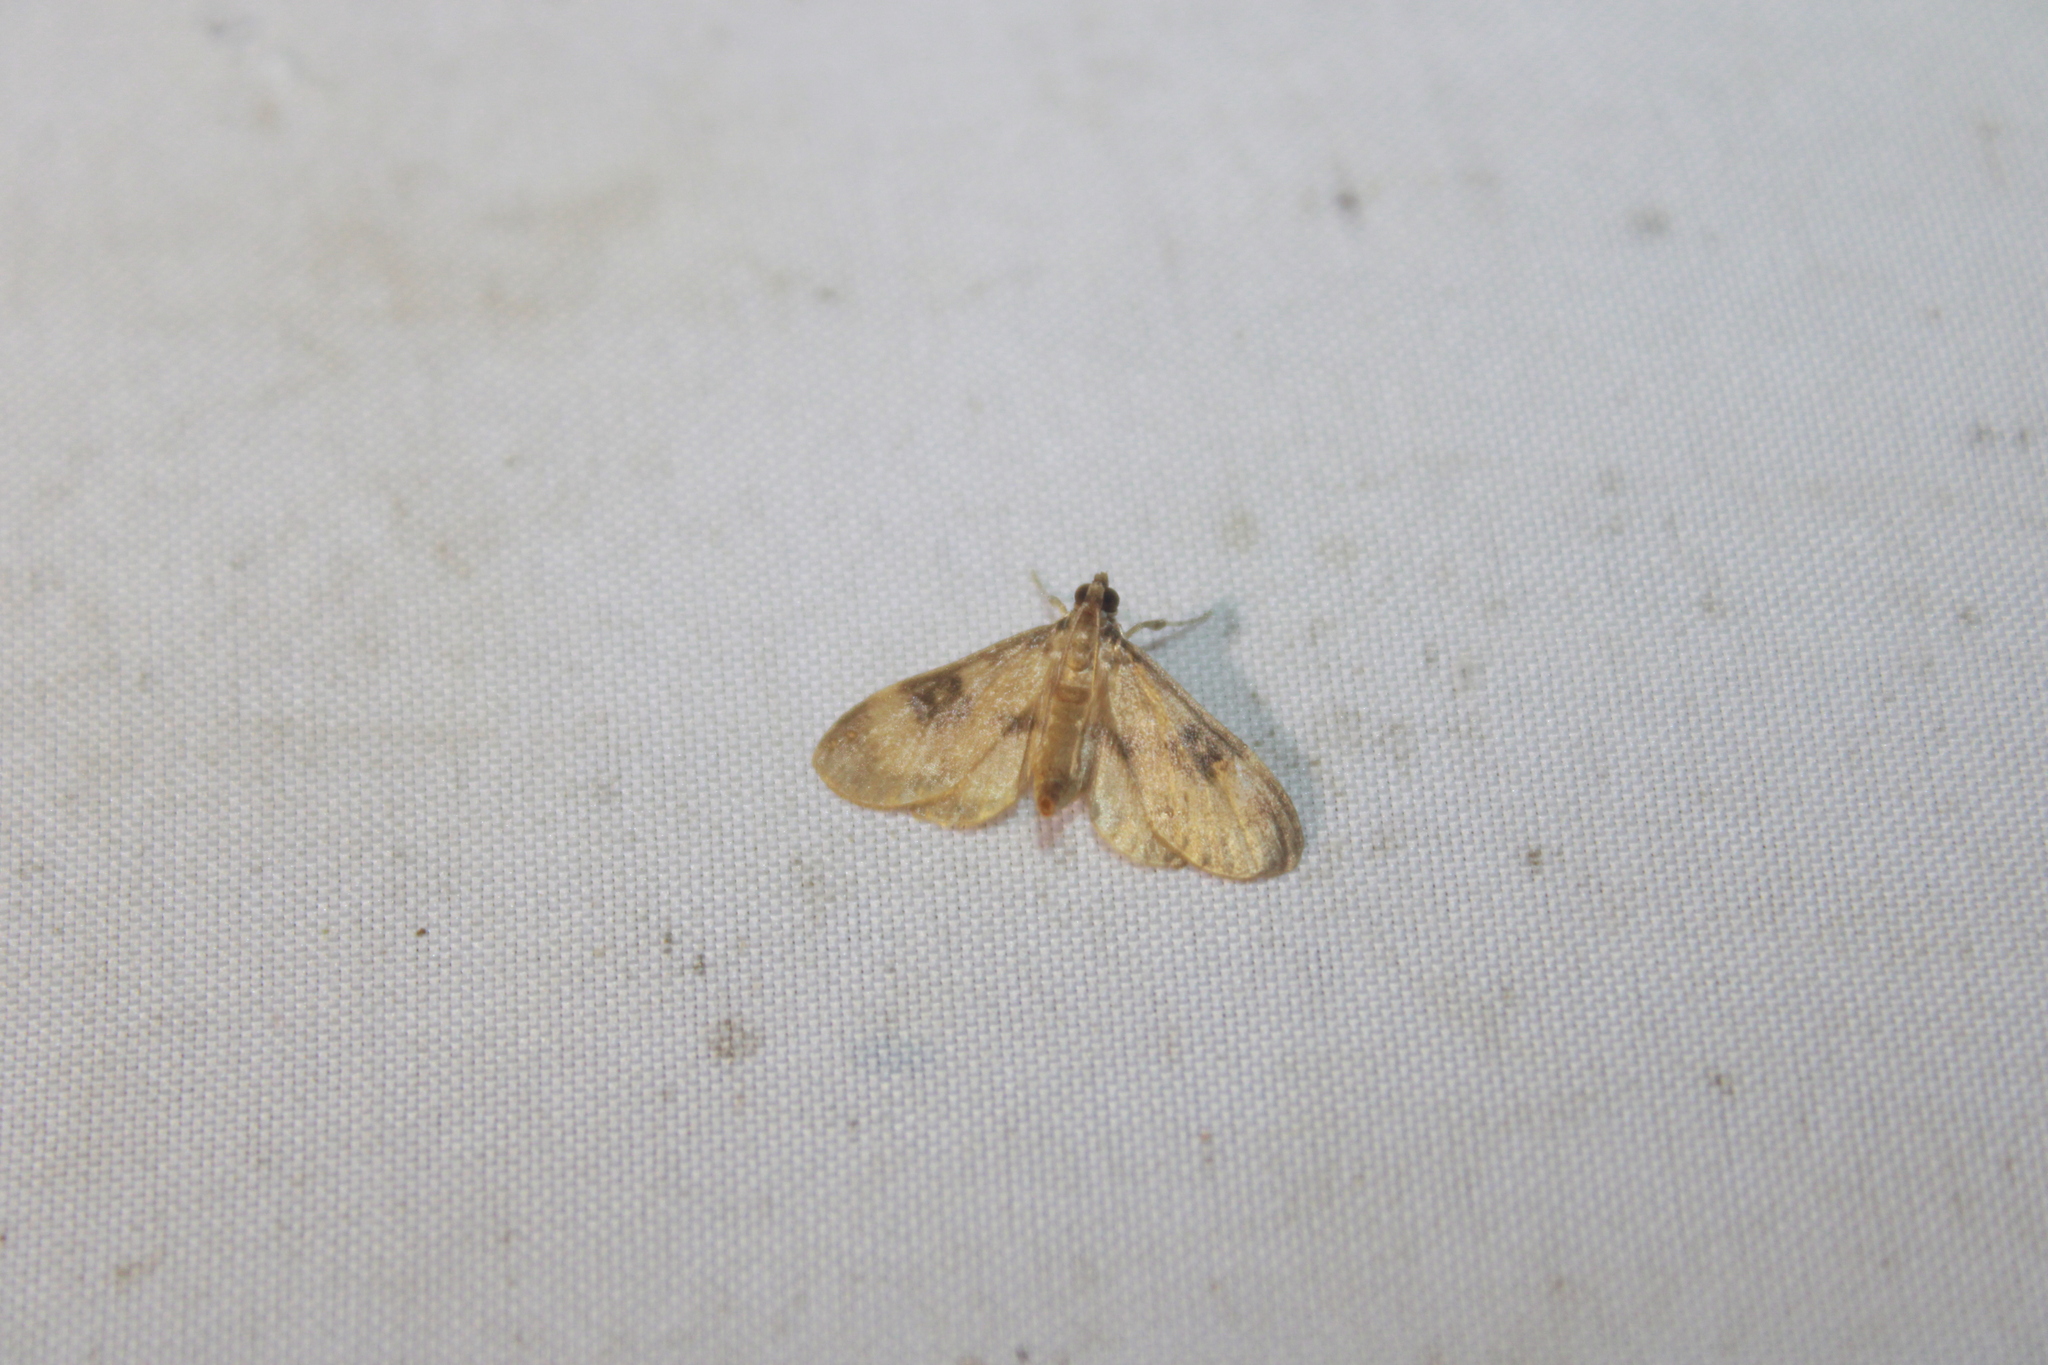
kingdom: Animalia
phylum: Arthropoda
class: Insecta
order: Lepidoptera
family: Crambidae
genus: Lygropia
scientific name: Lygropia fusalis
